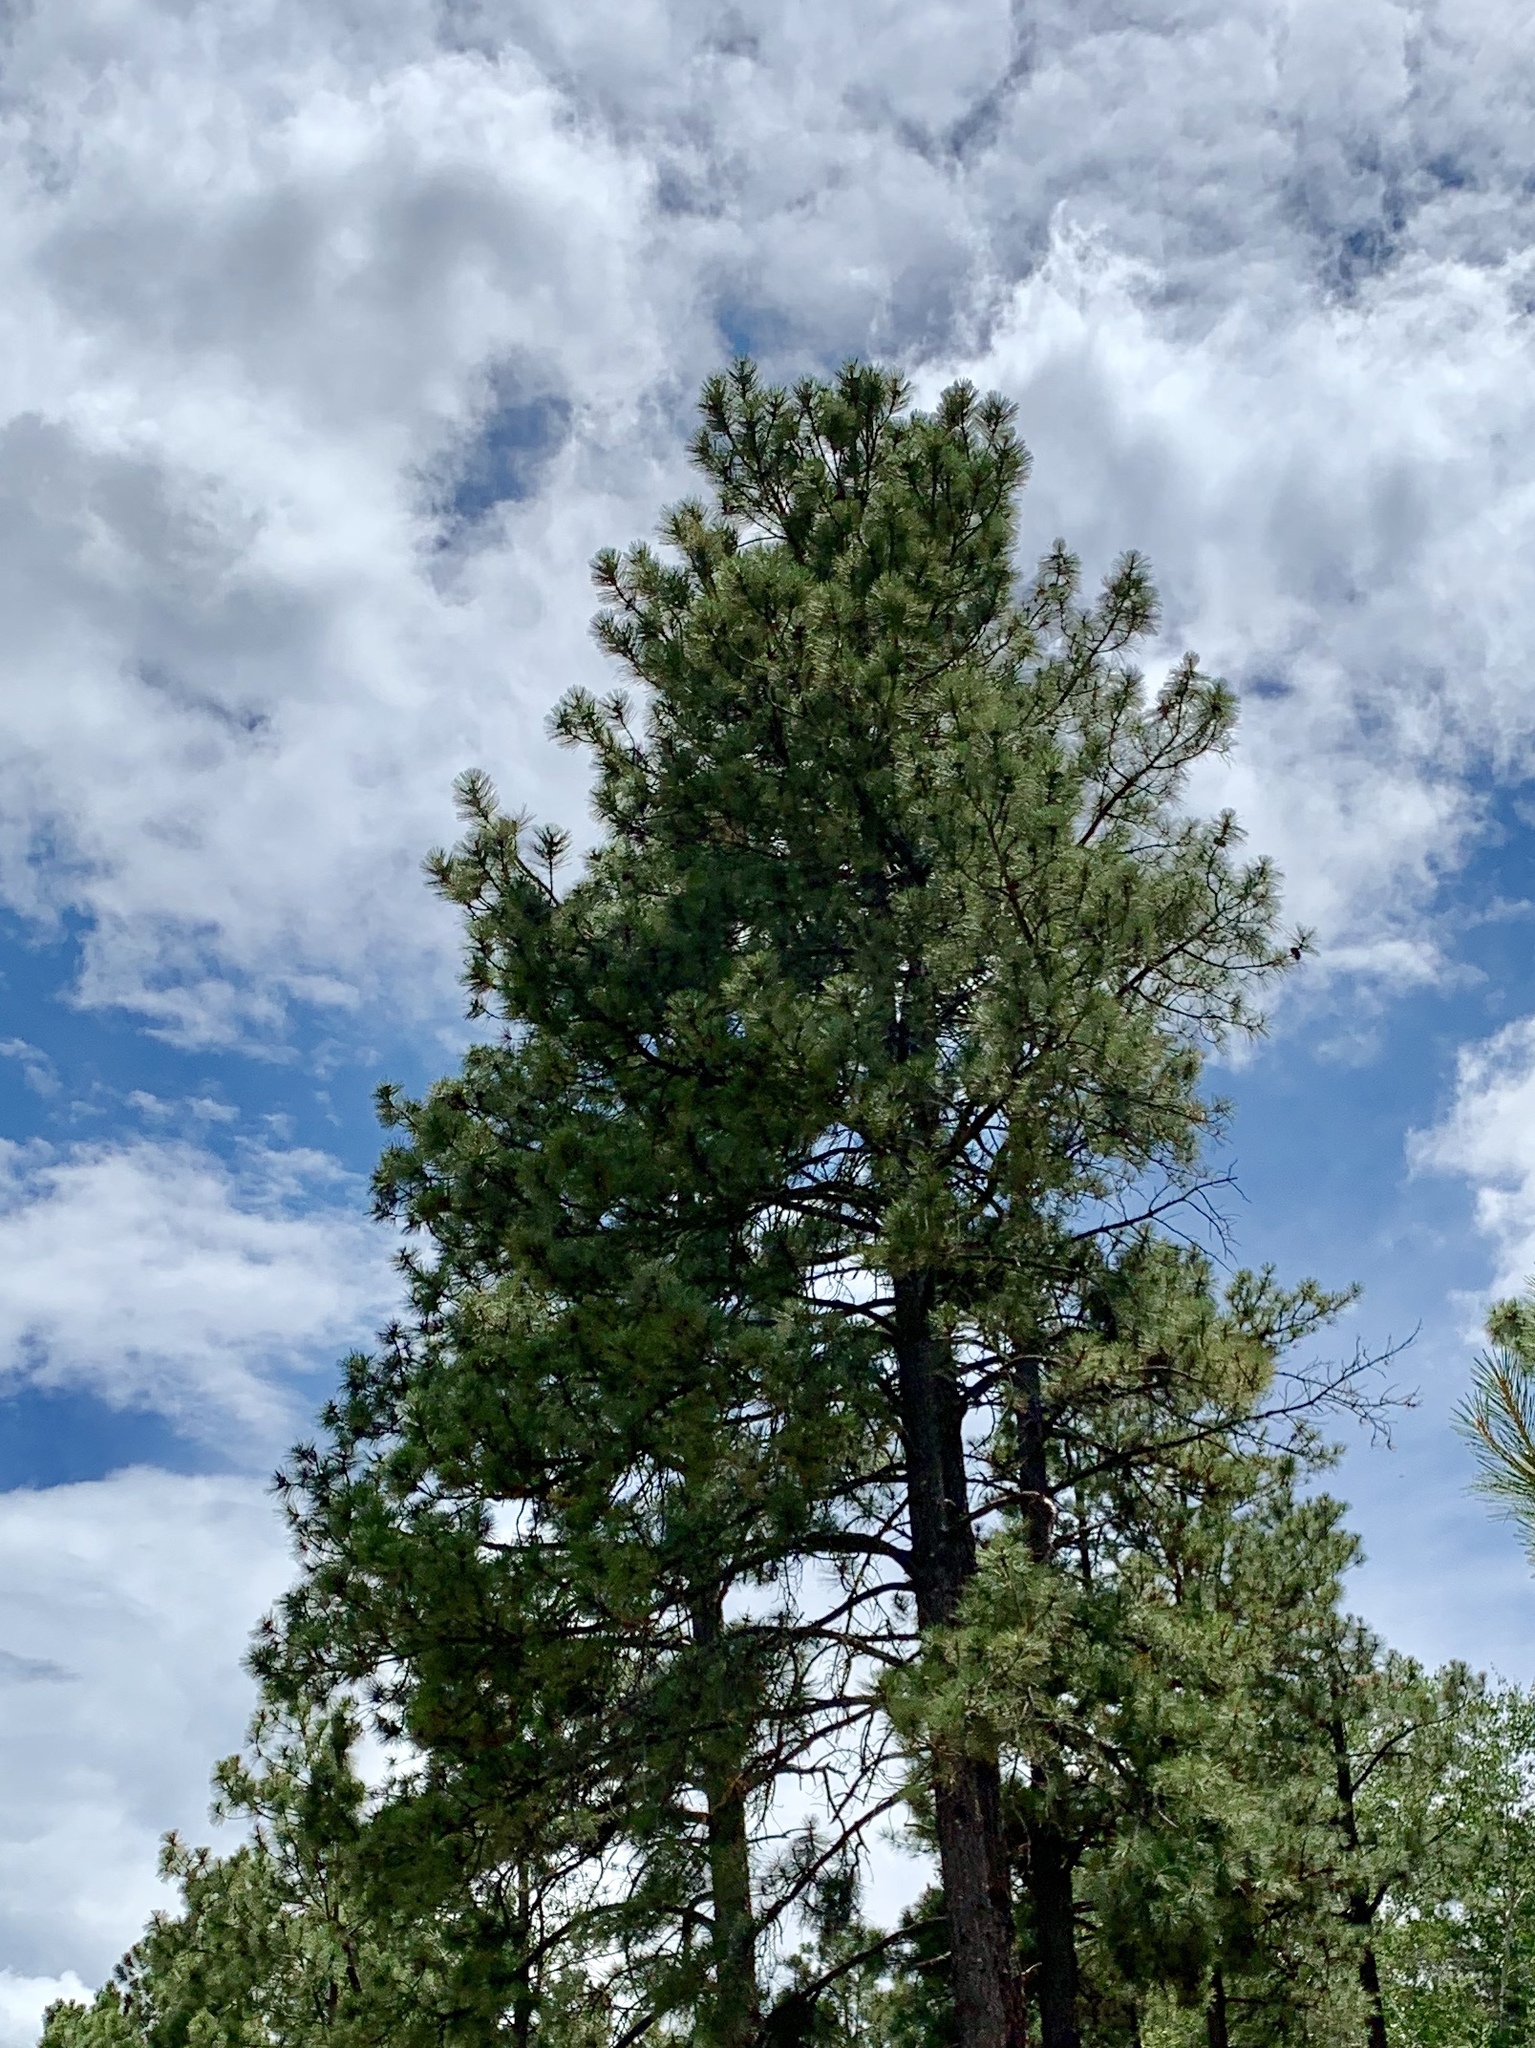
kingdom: Plantae
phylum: Tracheophyta
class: Pinopsida
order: Pinales
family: Pinaceae
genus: Pinus
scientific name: Pinus ponderosa
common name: Western yellow-pine
